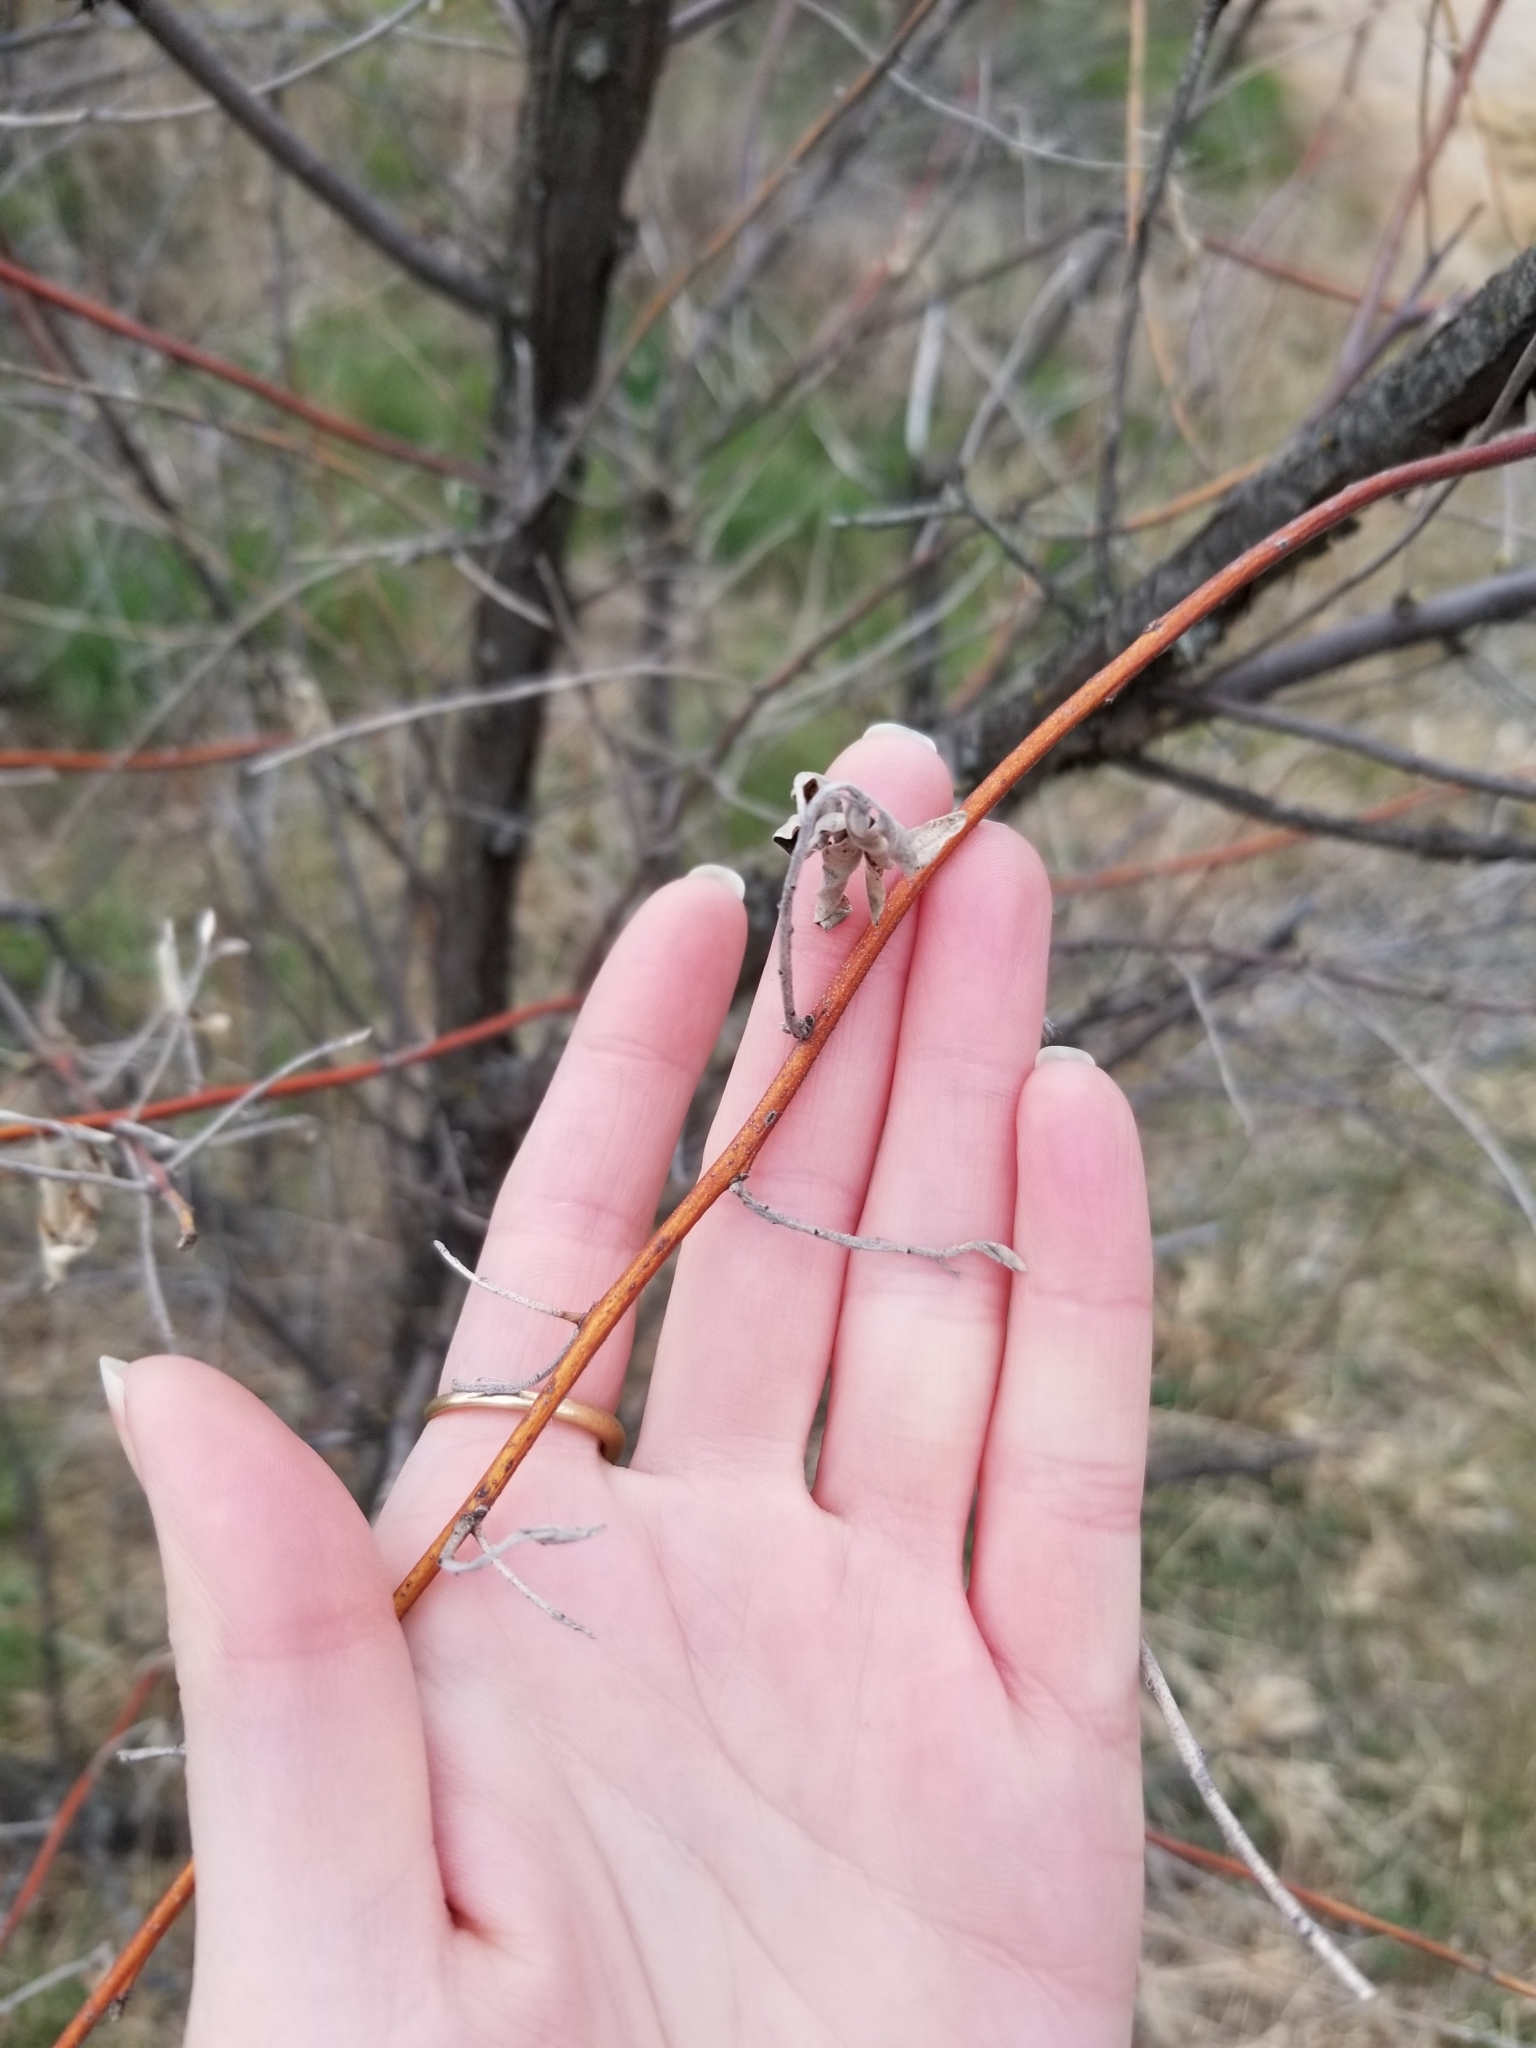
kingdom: Plantae
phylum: Tracheophyta
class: Magnoliopsida
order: Rosales
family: Elaeagnaceae
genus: Elaeagnus
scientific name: Elaeagnus angustifolia
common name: Russian olive
